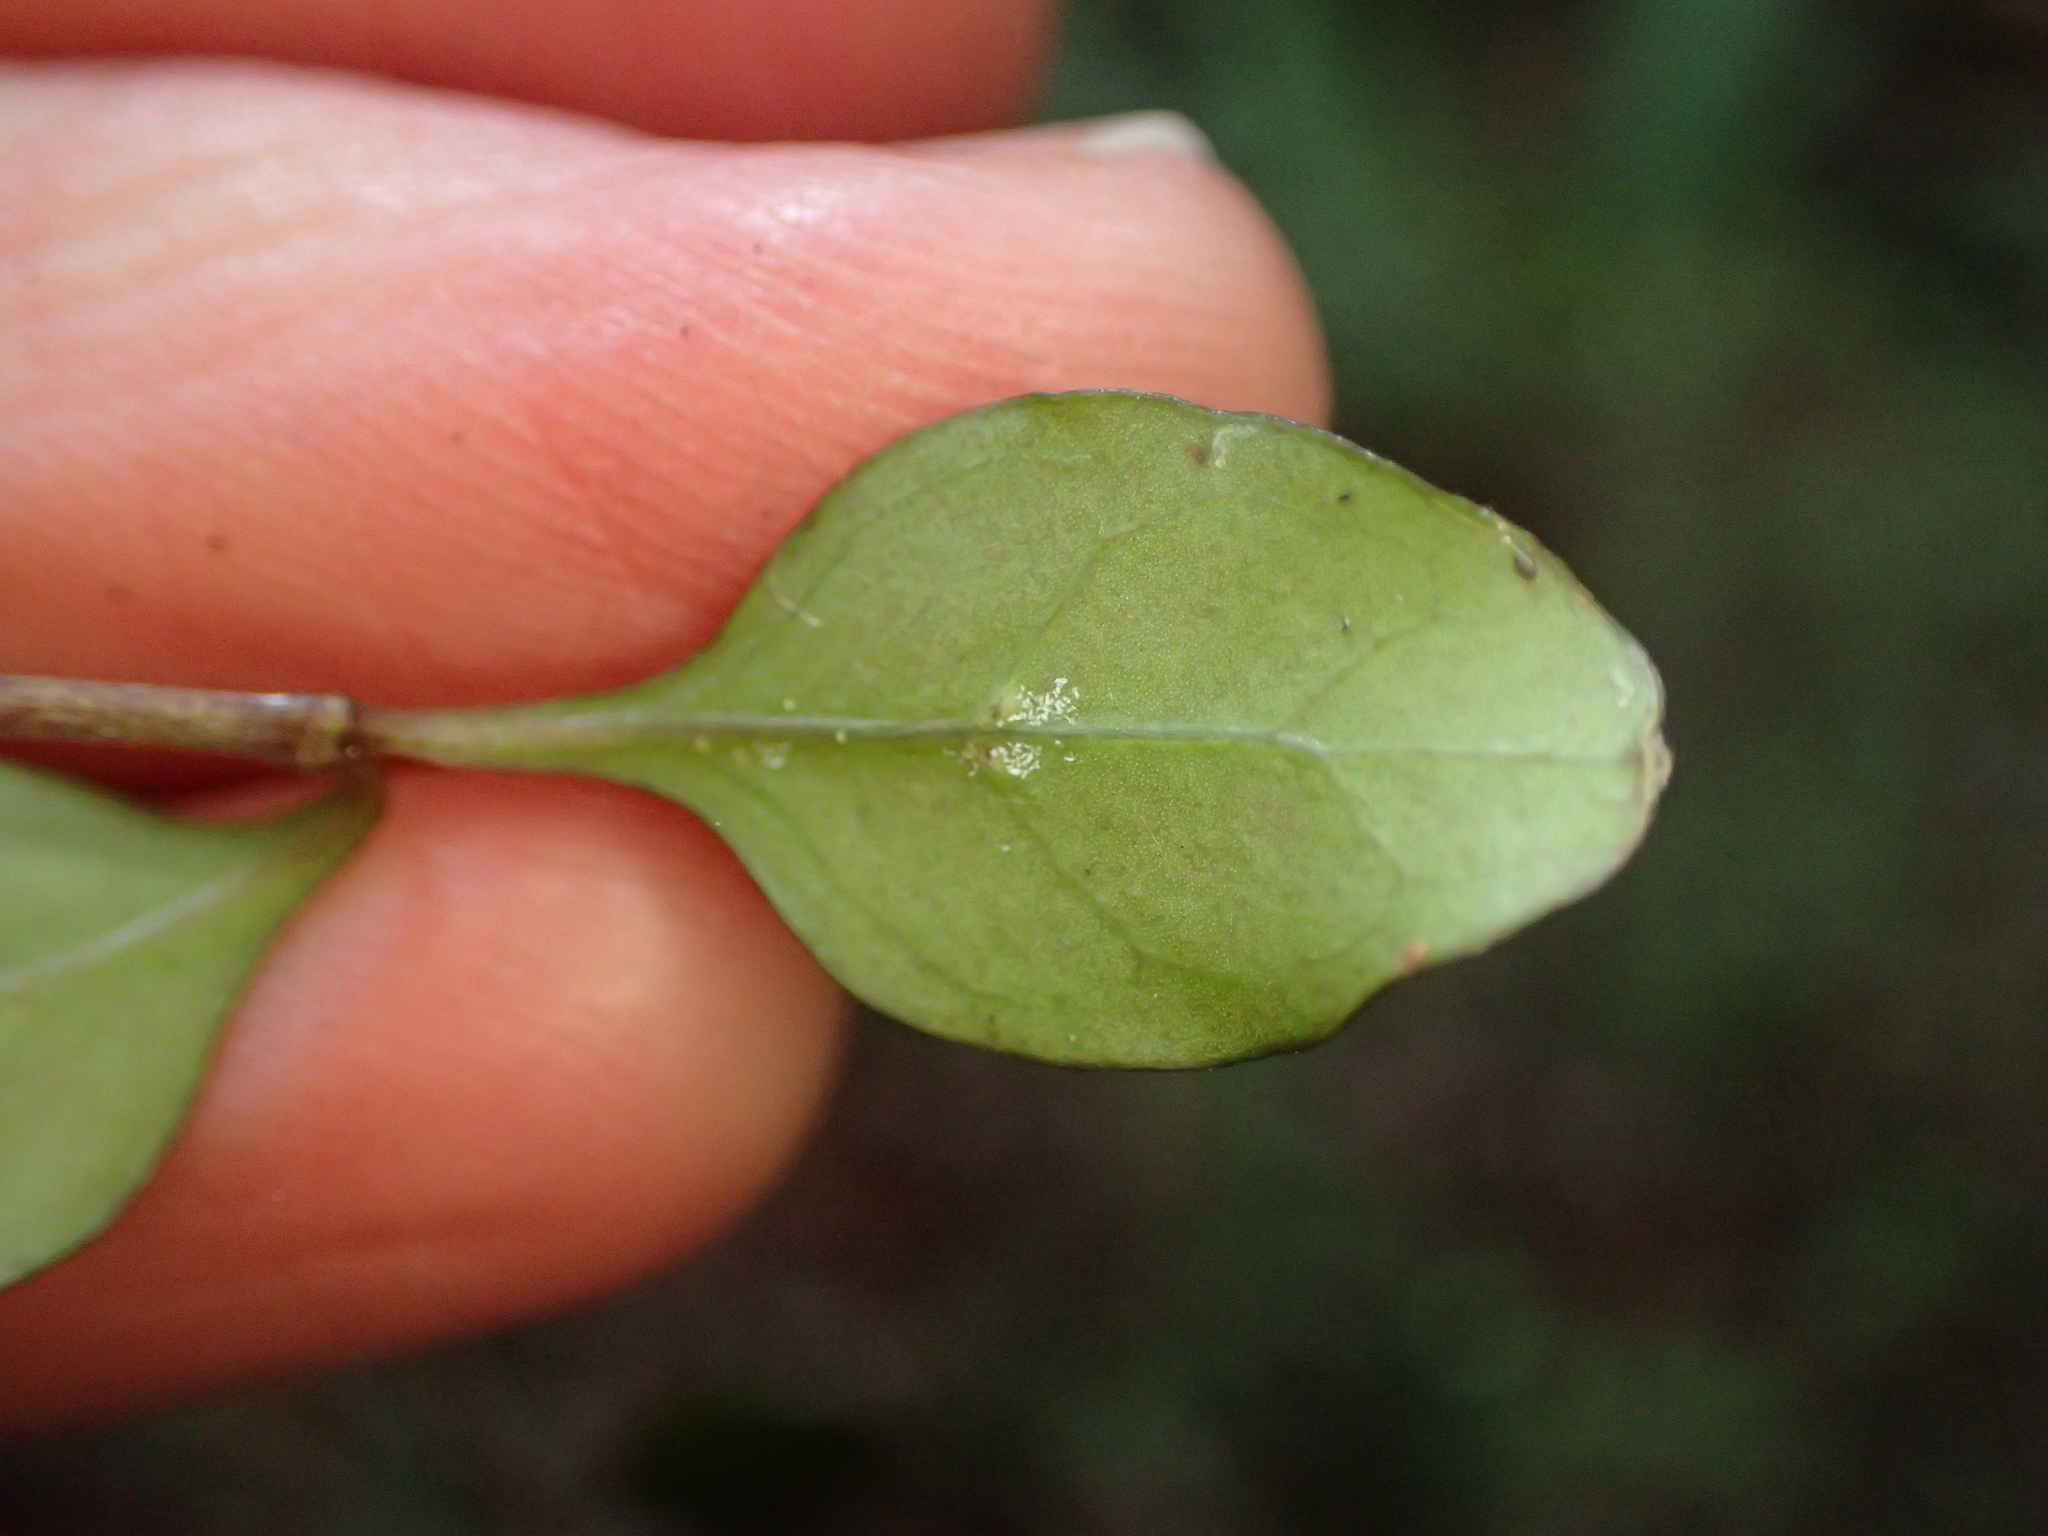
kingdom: Plantae
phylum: Tracheophyta
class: Magnoliopsida
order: Gentianales
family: Rubiaceae
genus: Coprosma
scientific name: Coprosma colensoi
